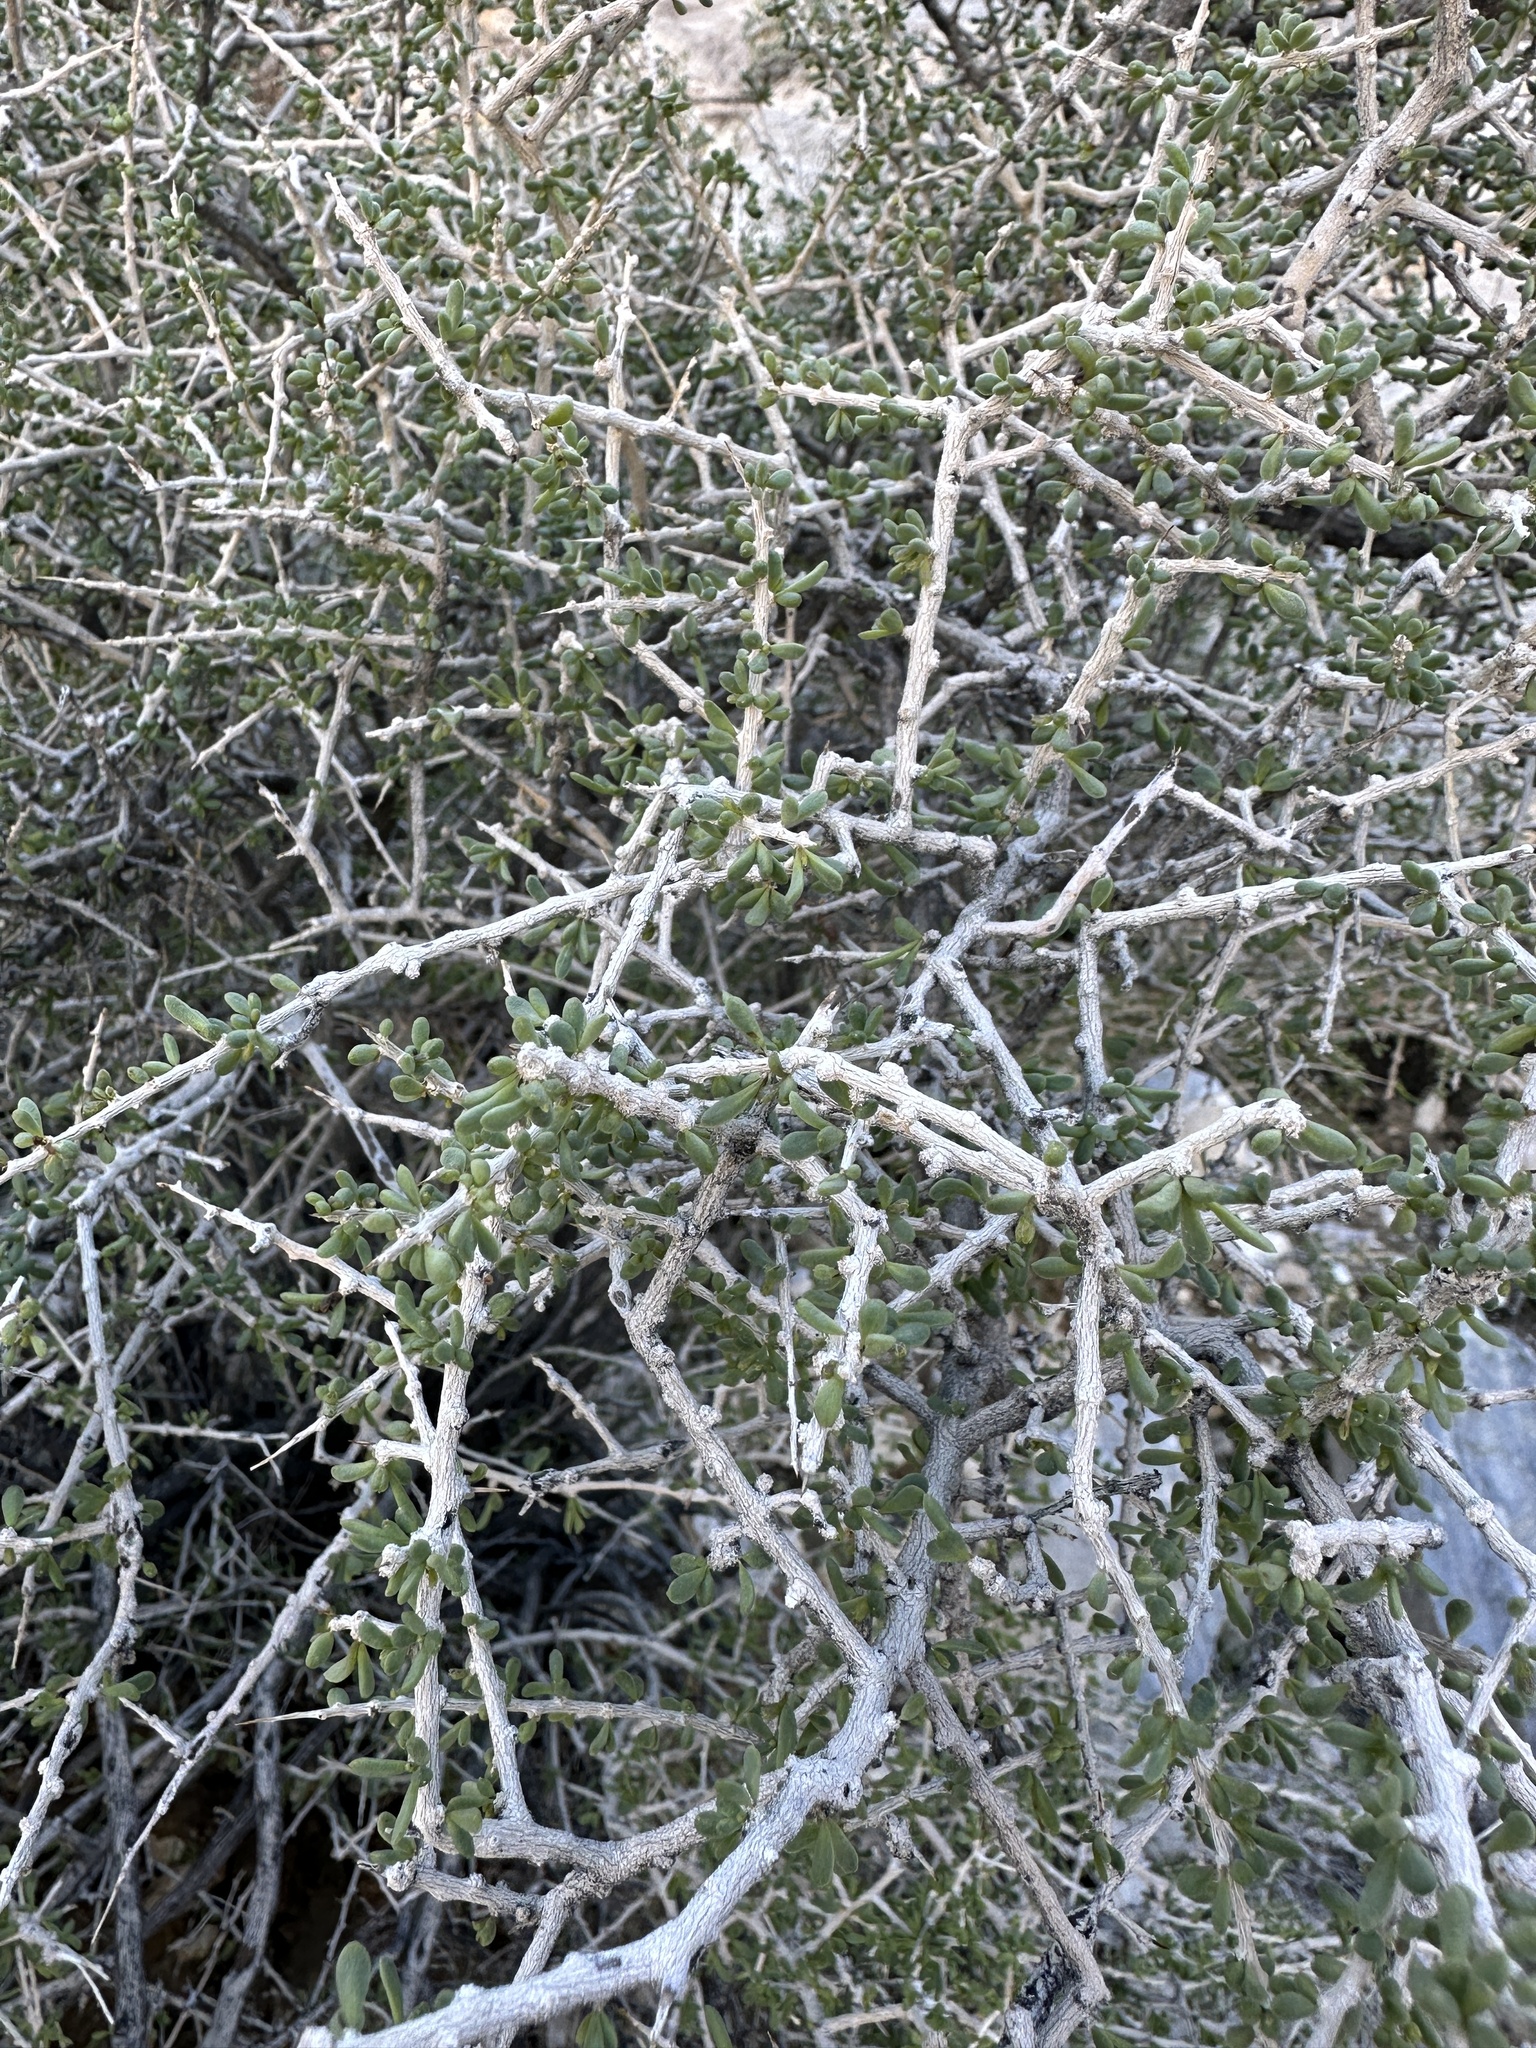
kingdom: Plantae
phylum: Tracheophyta
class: Magnoliopsida
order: Solanales
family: Solanaceae
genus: Lycium
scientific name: Lycium andersonii
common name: Water-jacket
